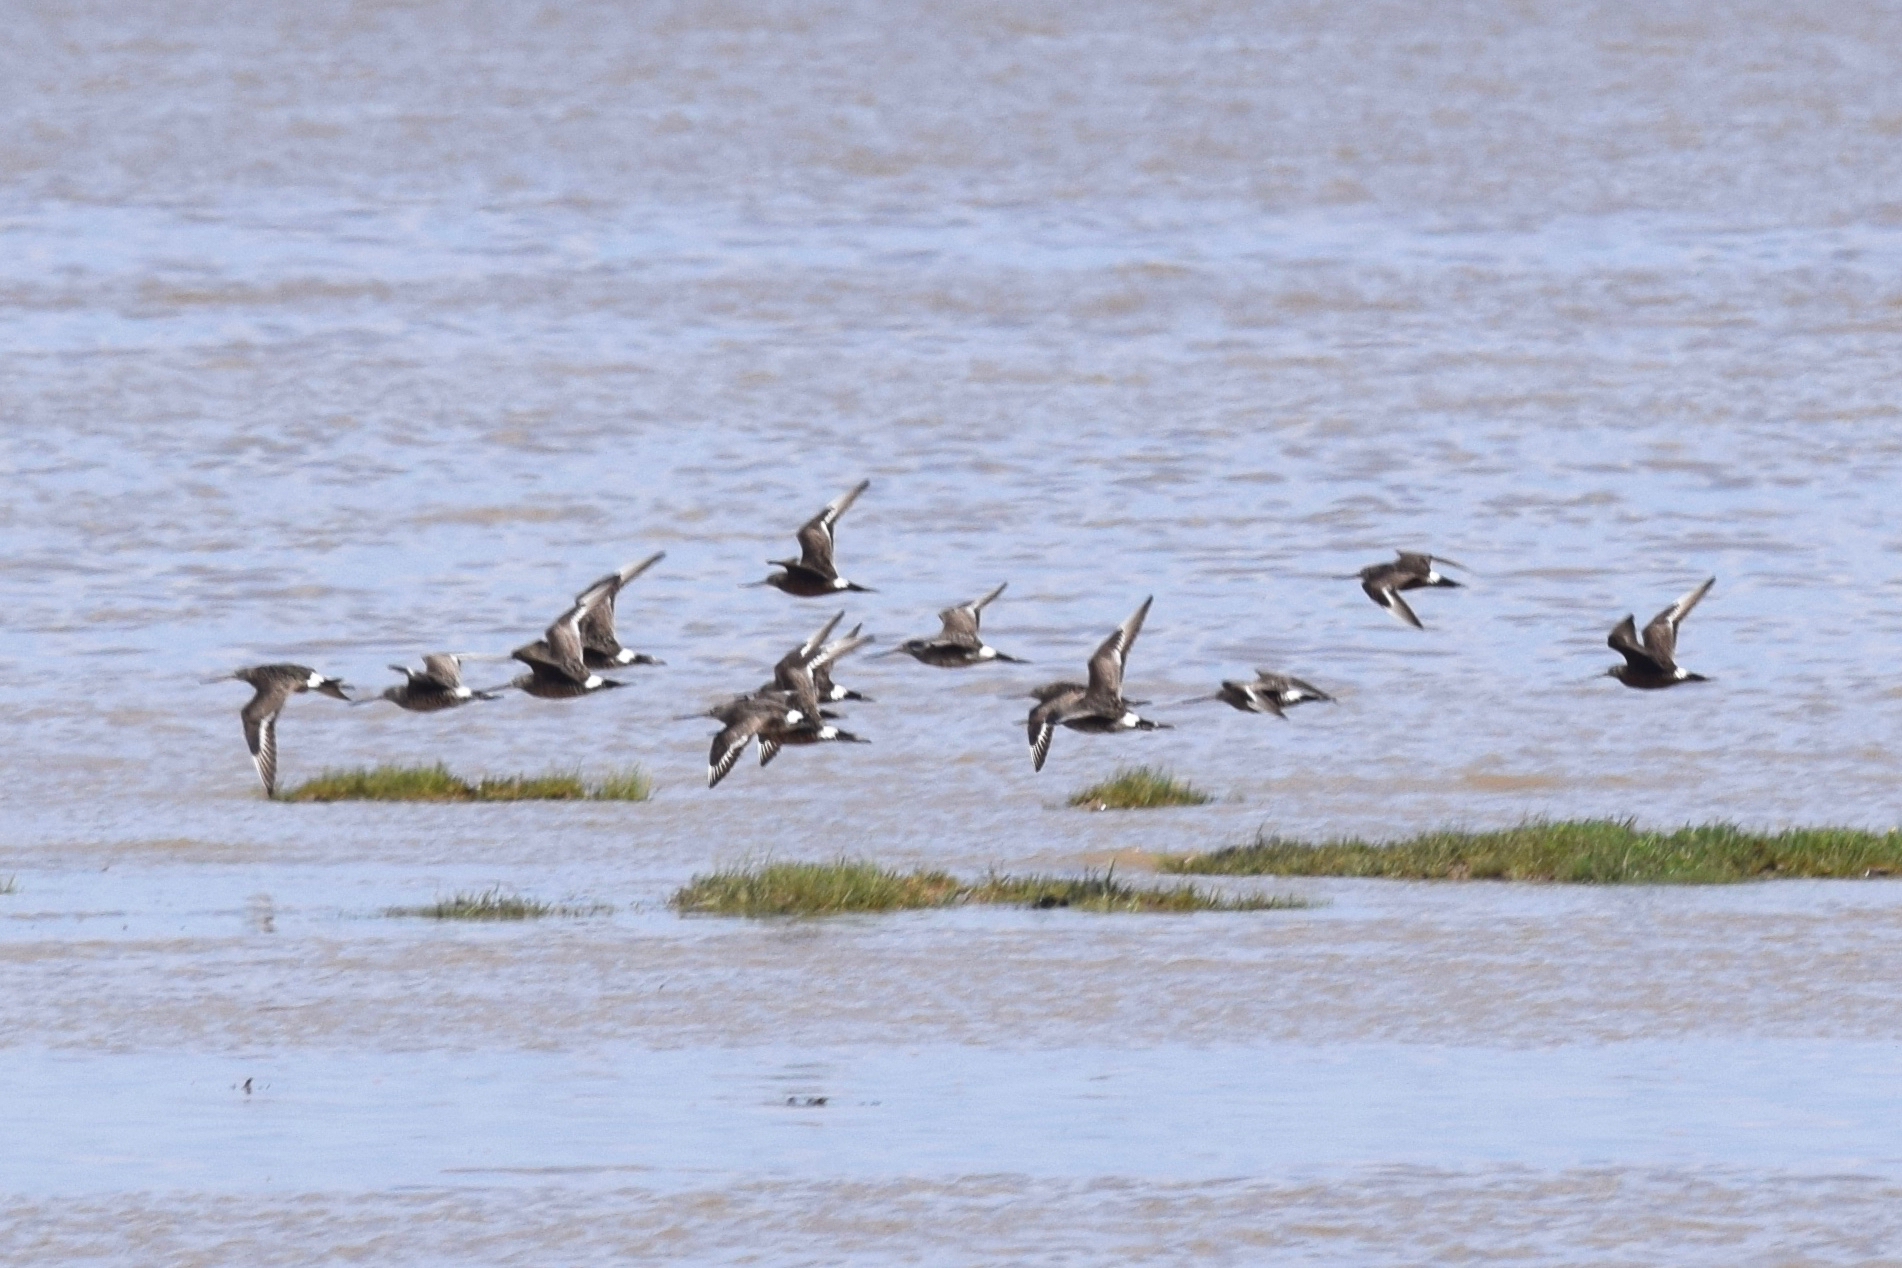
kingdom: Animalia
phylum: Chordata
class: Aves
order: Charadriiformes
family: Scolopacidae
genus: Limosa
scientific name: Limosa haemastica
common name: Hudsonian godwit
